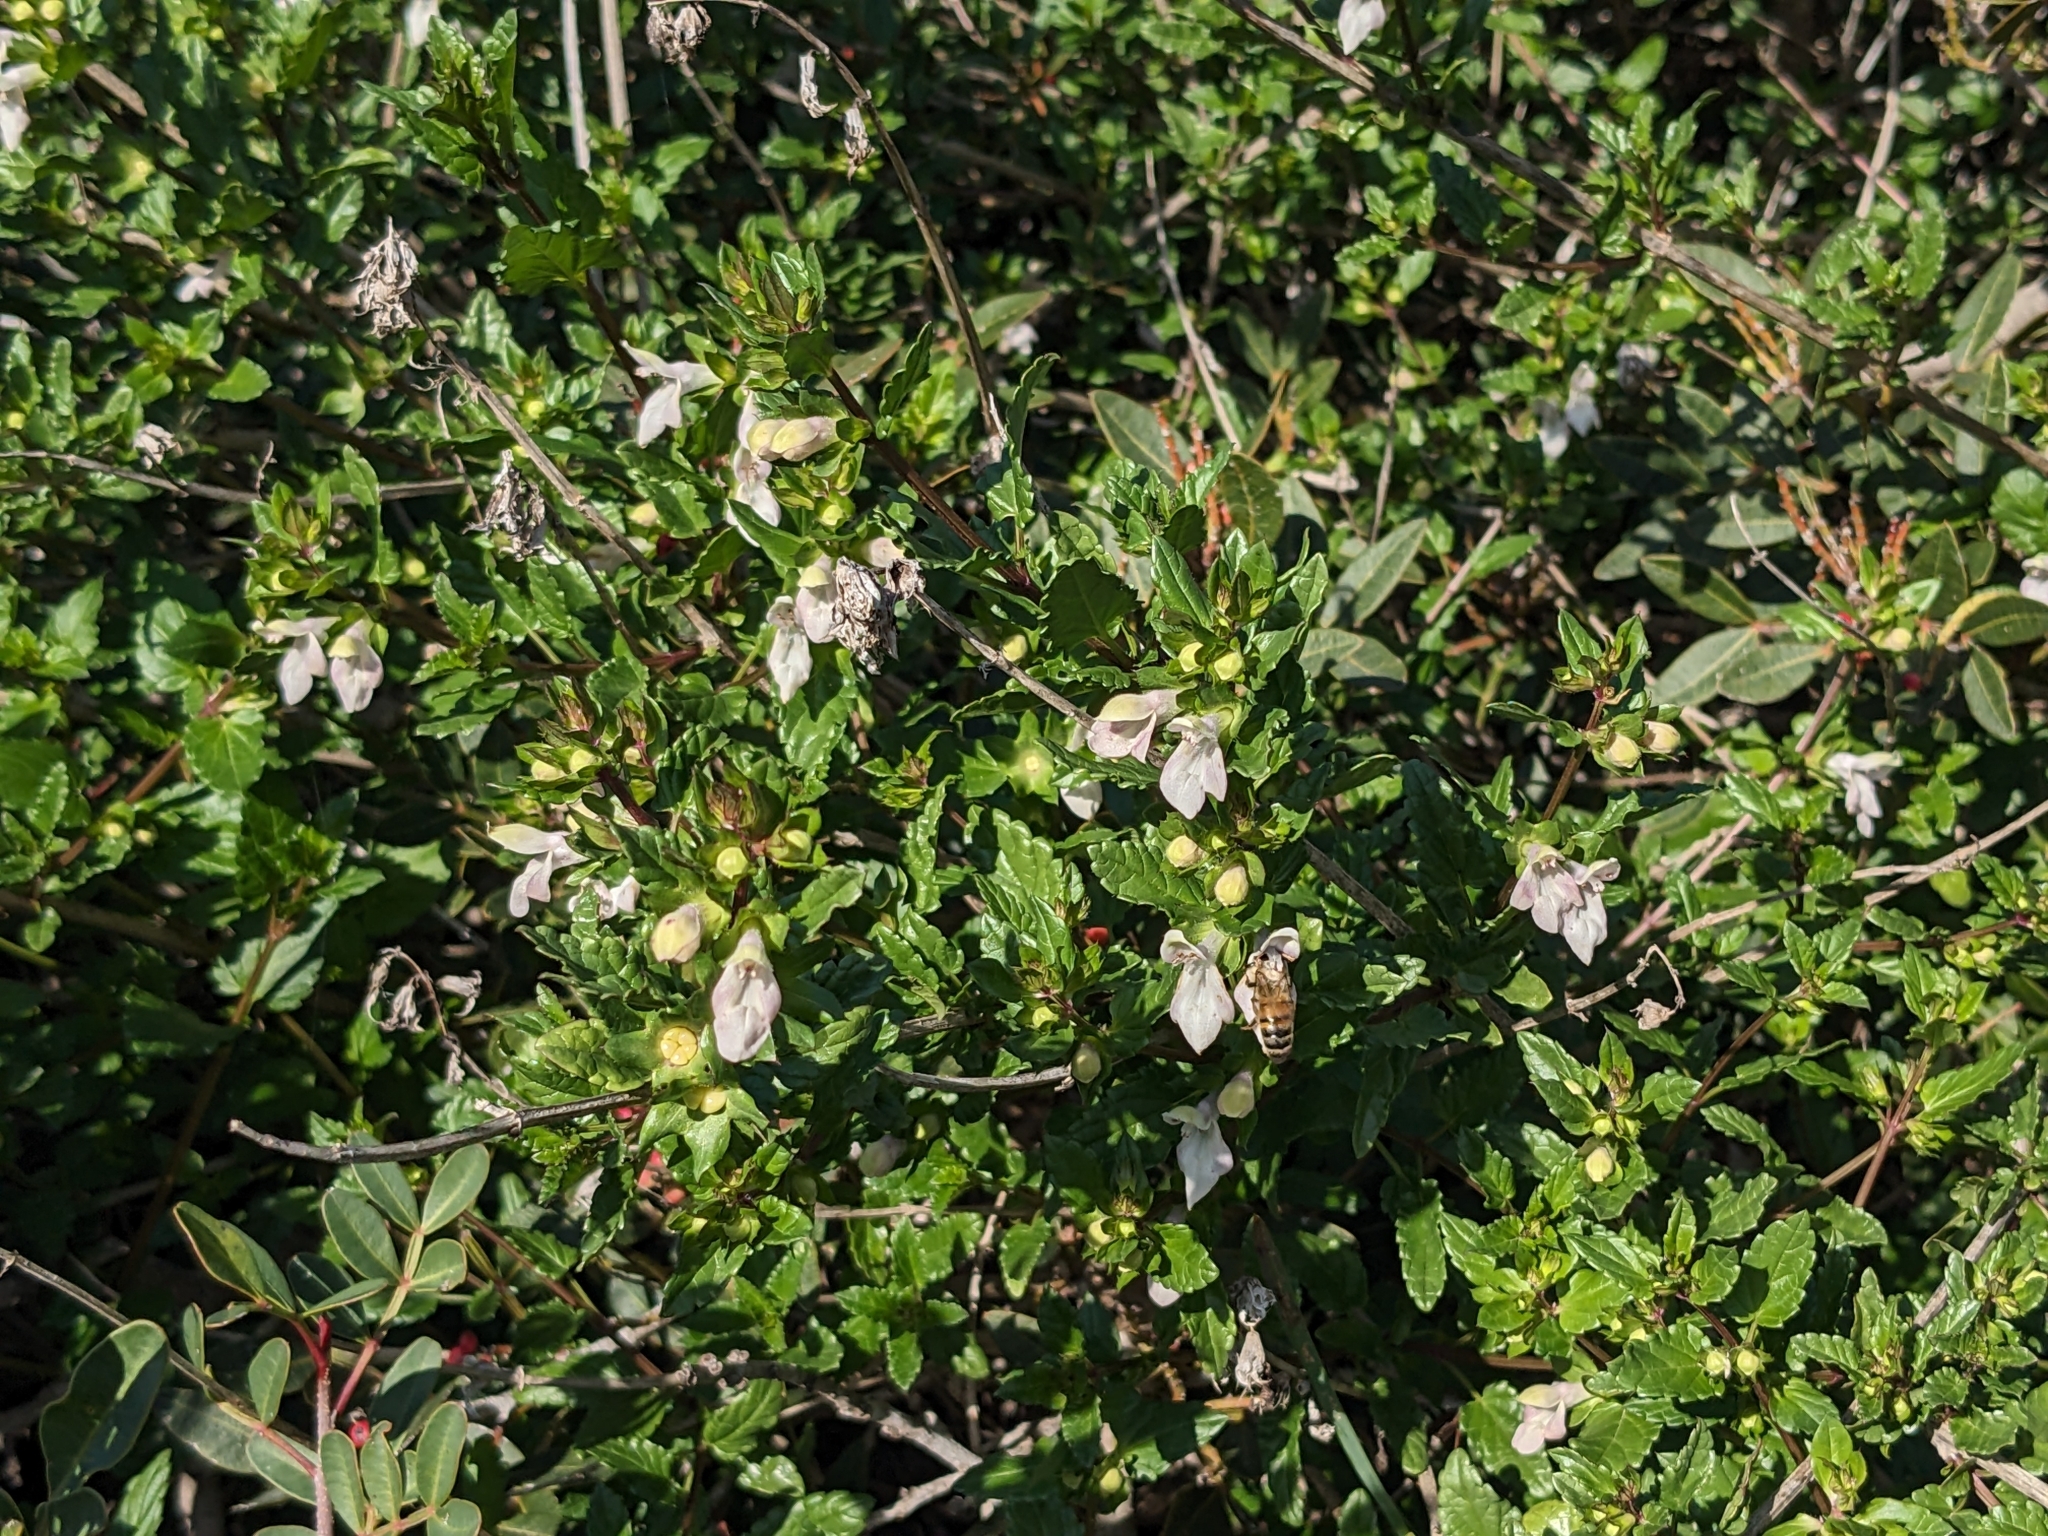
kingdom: Plantae
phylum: Tracheophyta
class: Magnoliopsida
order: Lamiales
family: Lamiaceae
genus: Prasium
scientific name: Prasium majus
